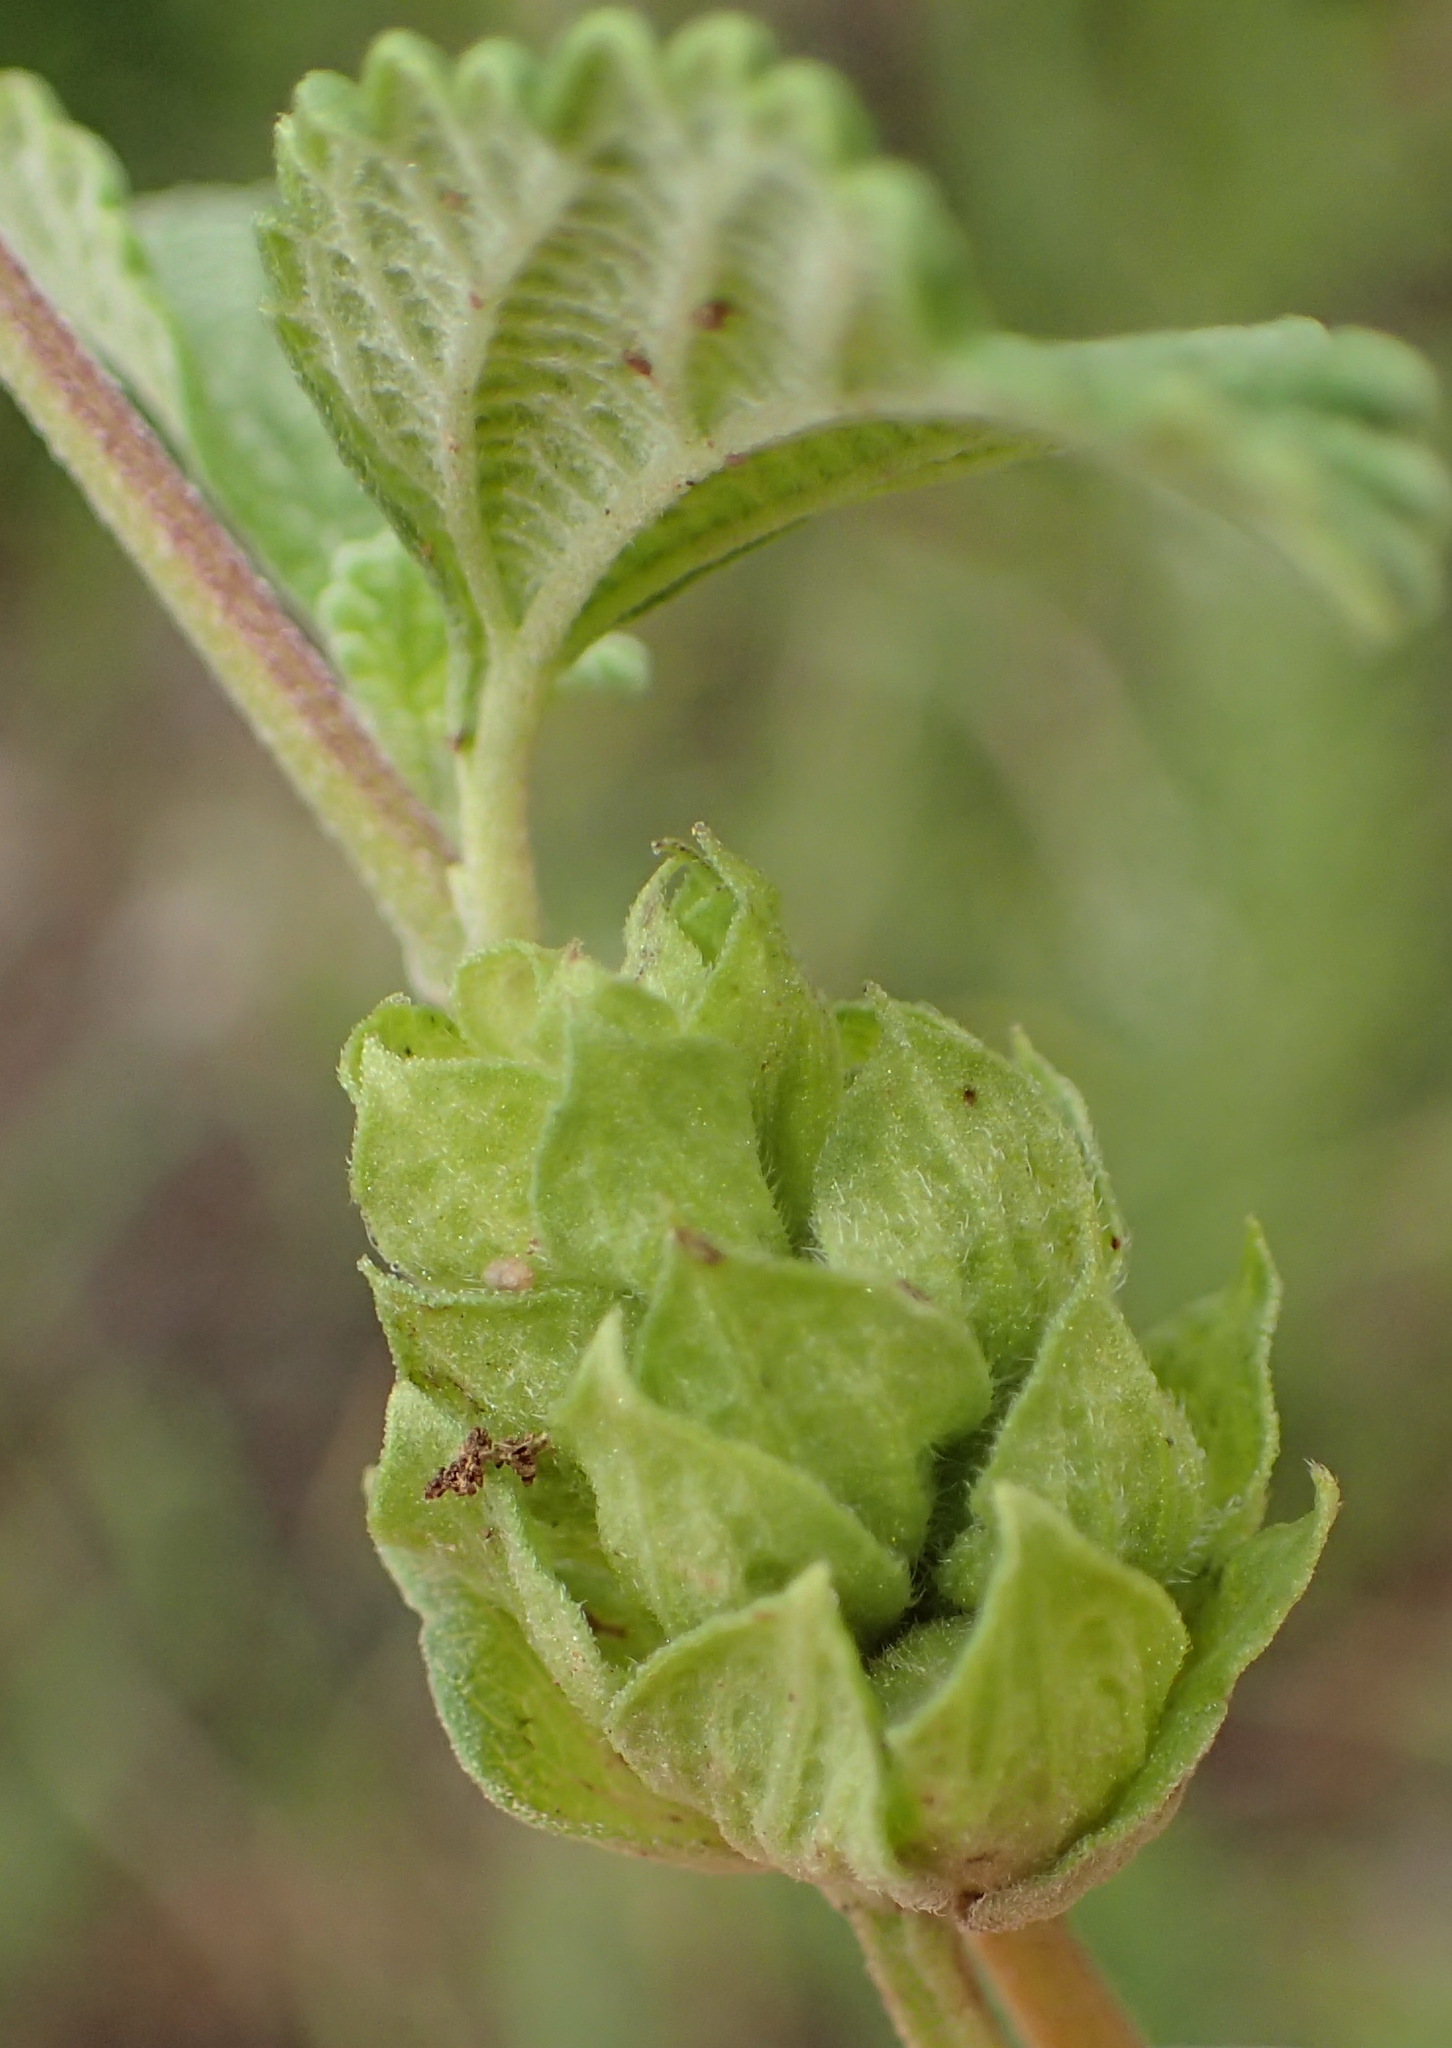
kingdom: Plantae
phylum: Tracheophyta
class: Magnoliopsida
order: Lamiales
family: Verbenaceae
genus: Lantana
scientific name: Lantana rugosa
